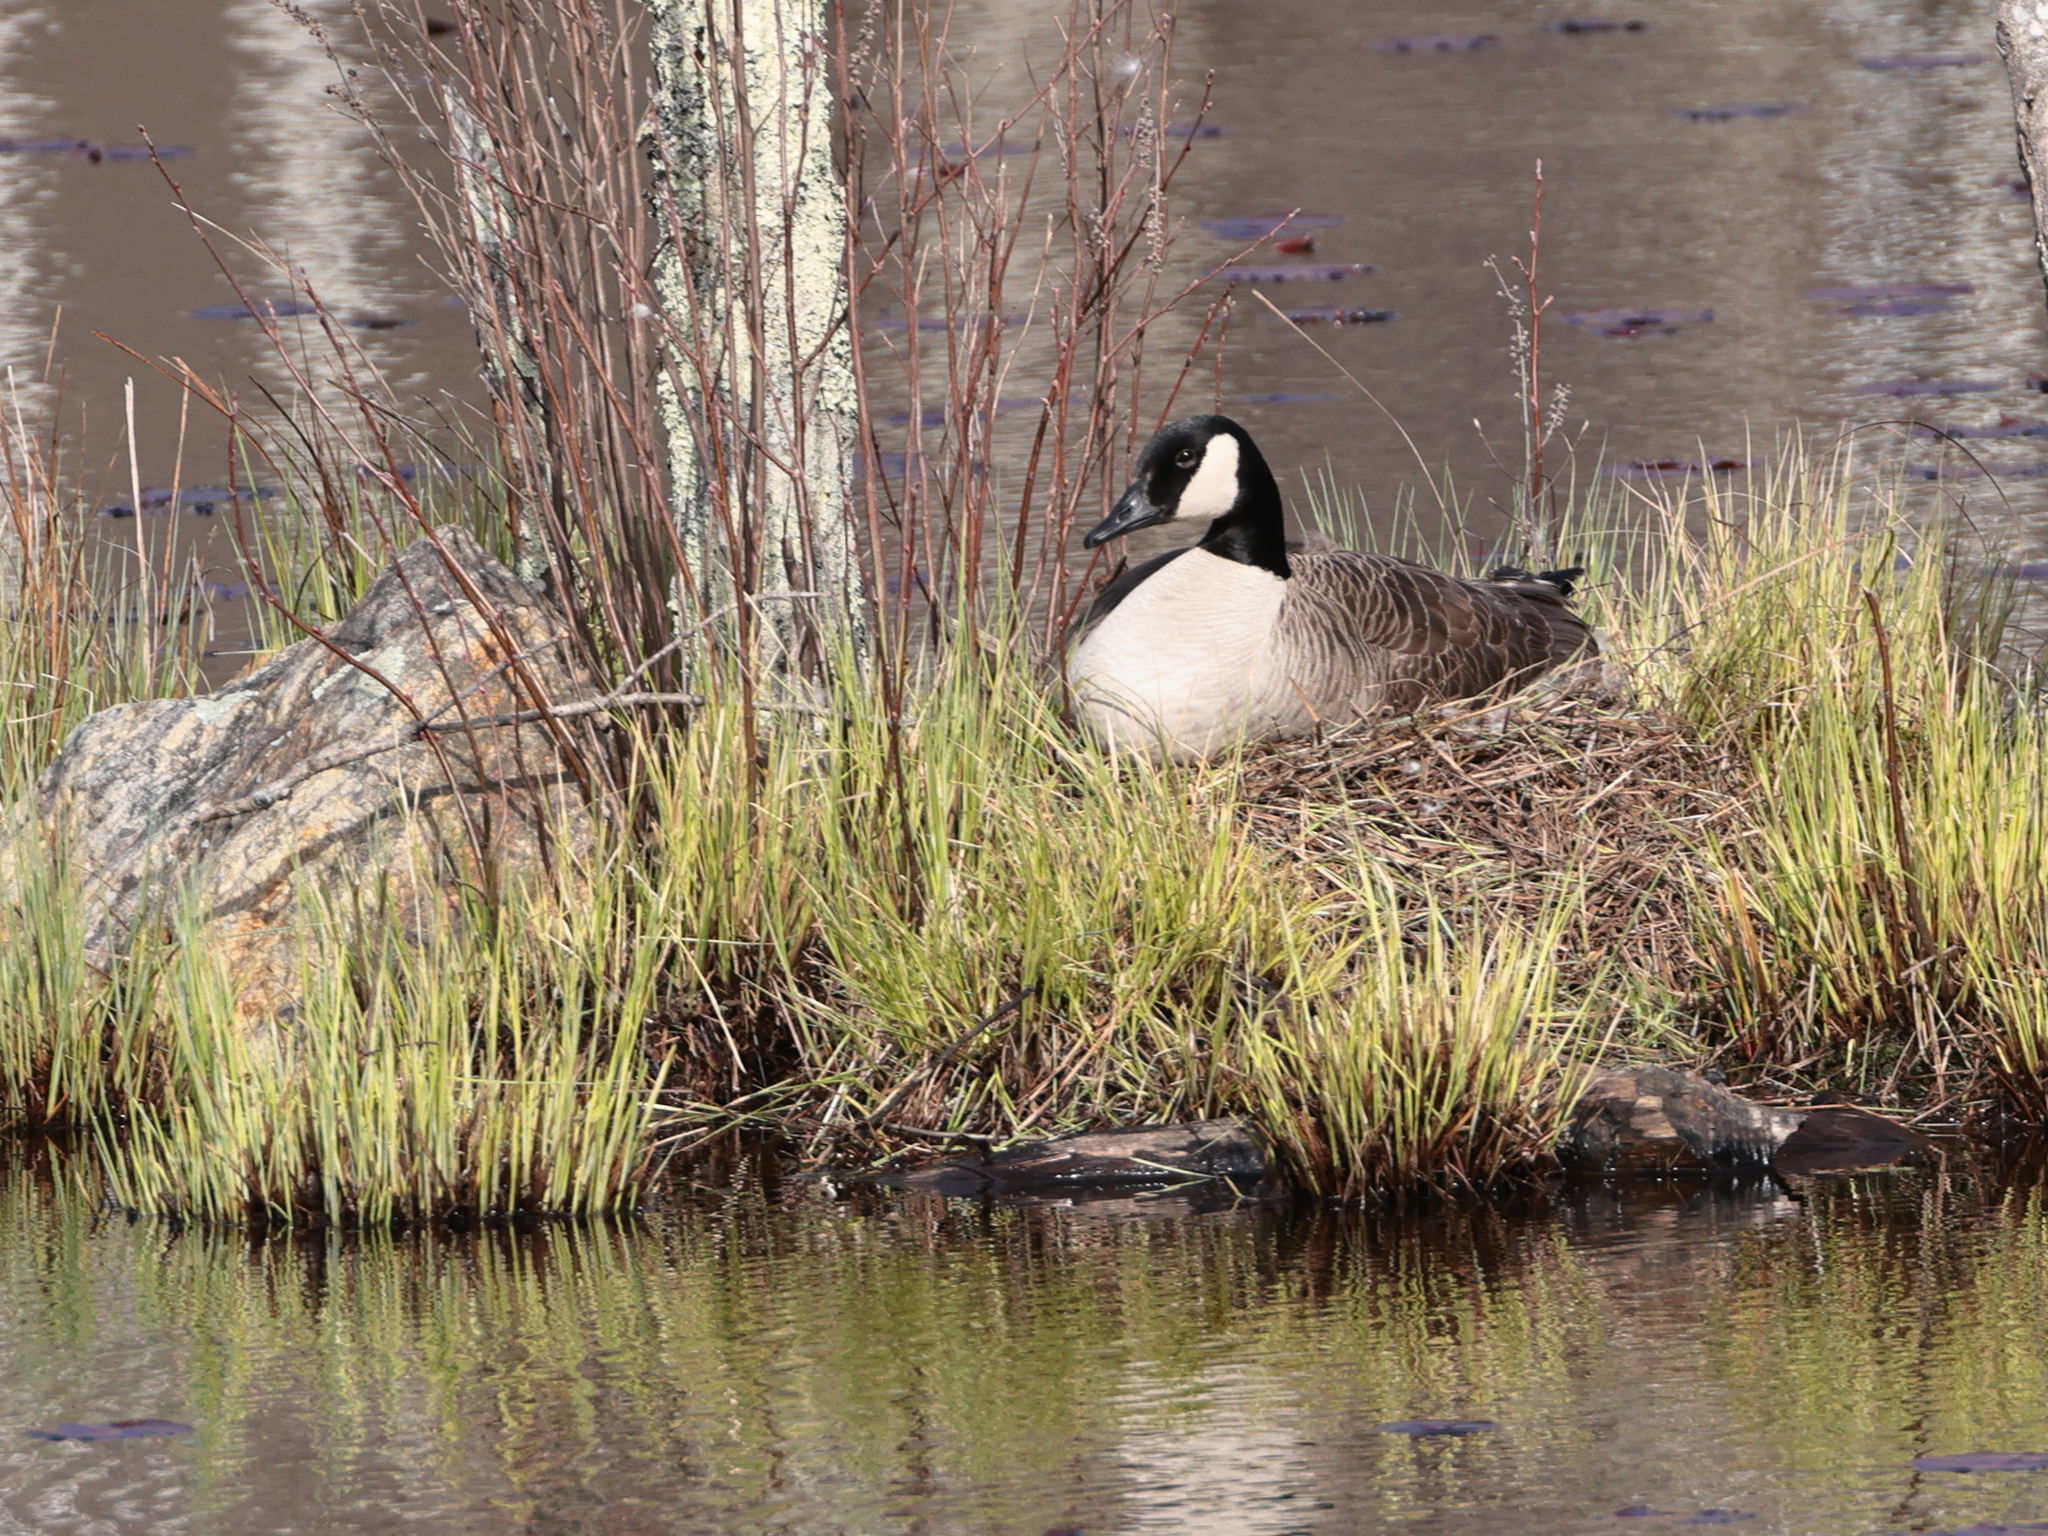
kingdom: Animalia
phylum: Chordata
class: Aves
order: Anseriformes
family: Anatidae
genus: Branta
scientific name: Branta canadensis
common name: Canada goose
